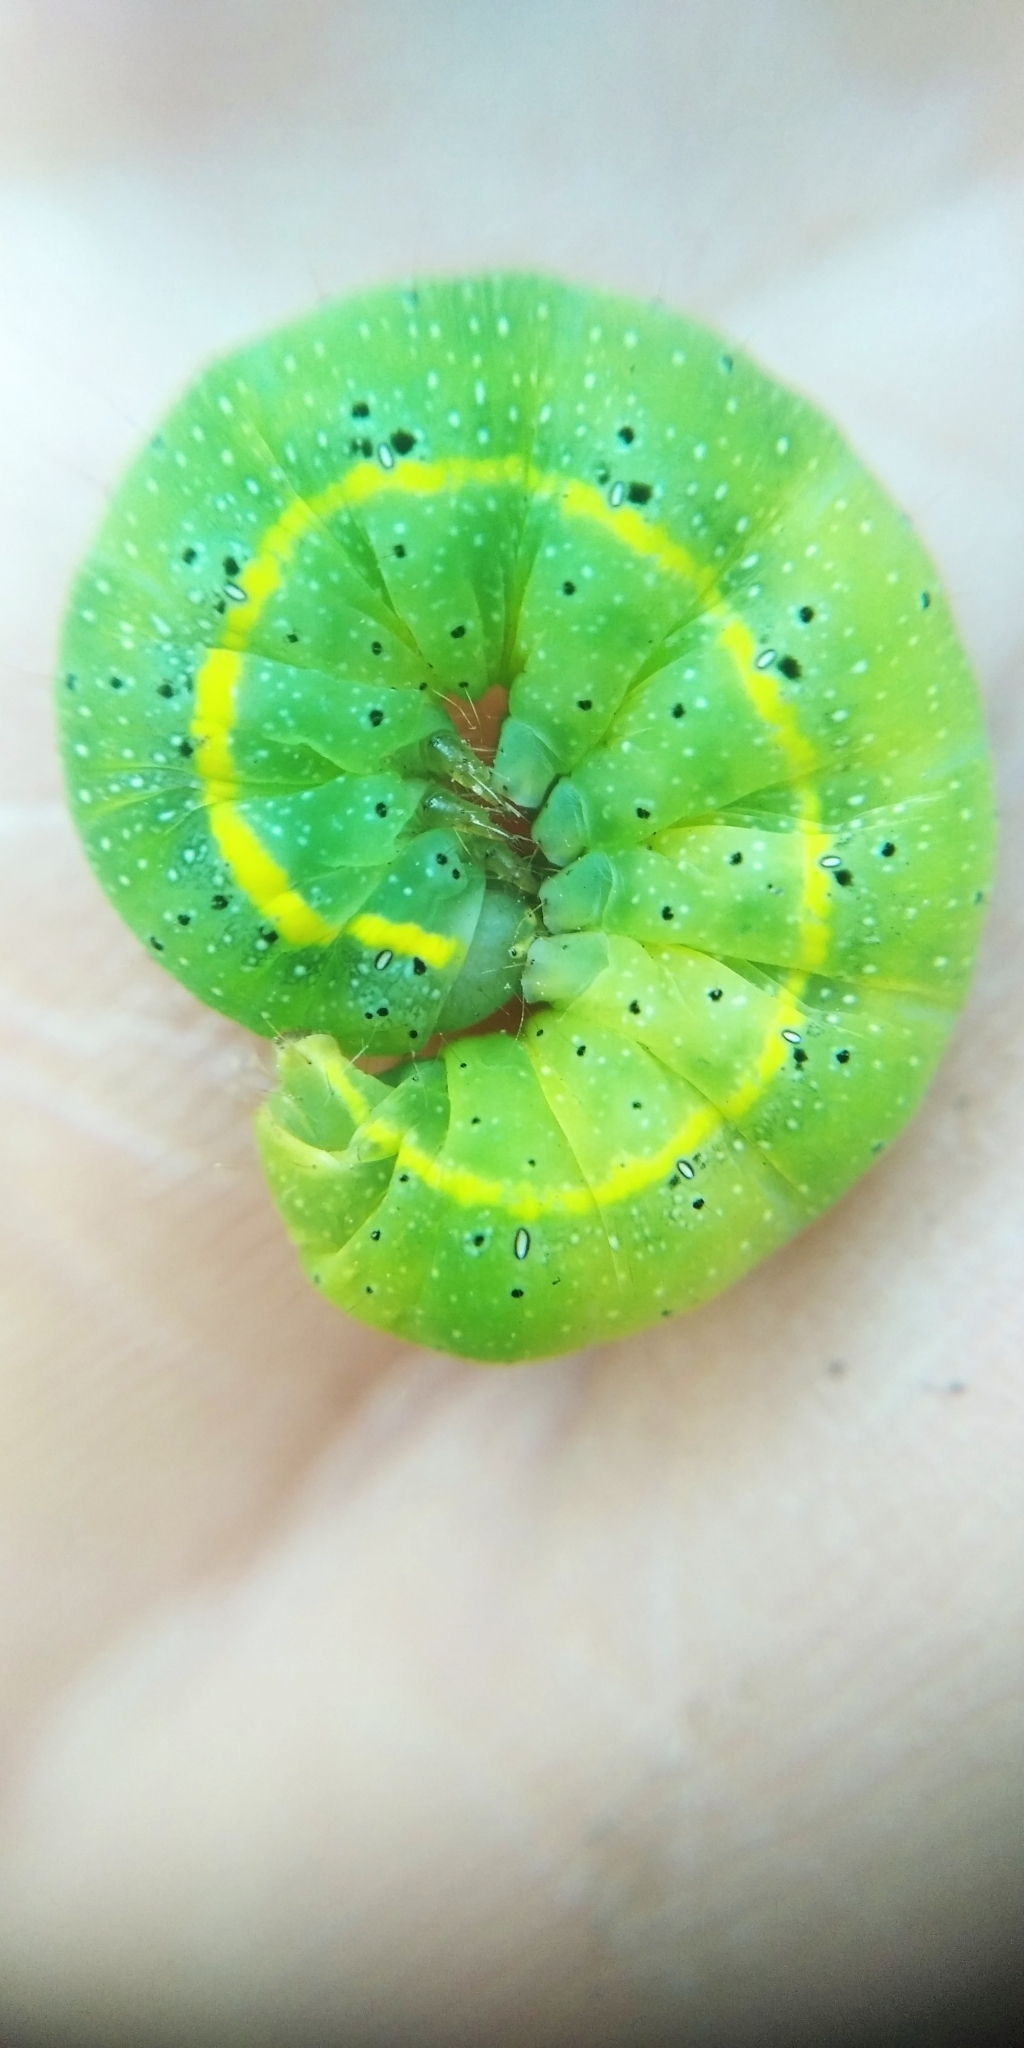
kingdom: Animalia
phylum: Arthropoda
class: Insecta
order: Lepidoptera
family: Noctuidae
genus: Lacanobia
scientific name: Lacanobia oleracea
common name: Bright-line brown-eye
